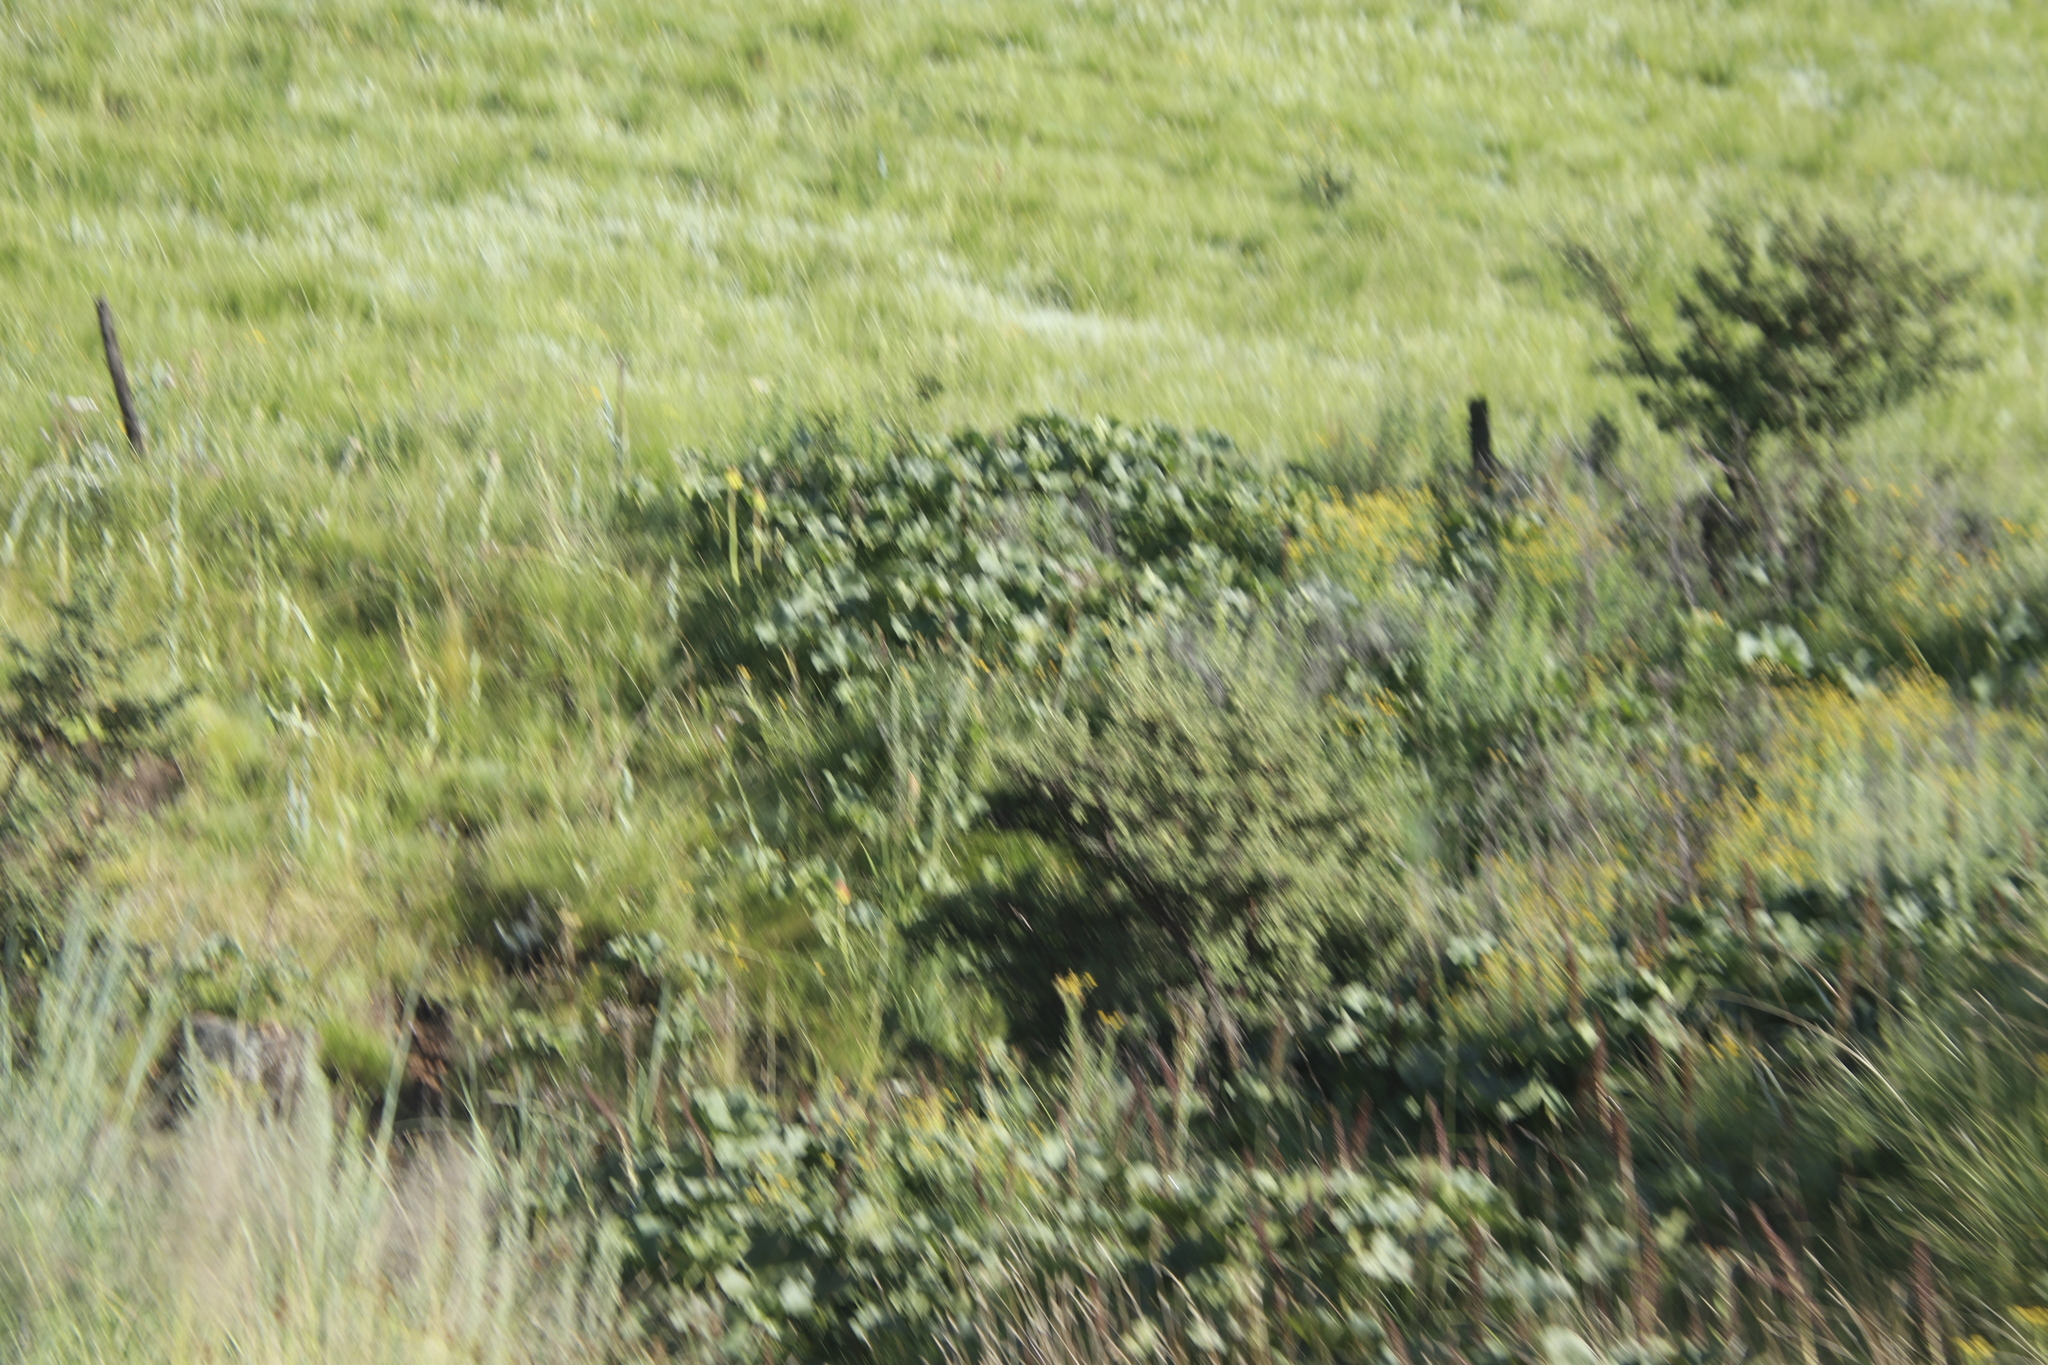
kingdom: Plantae
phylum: Tracheophyta
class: Magnoliopsida
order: Gunnerales
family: Gunneraceae
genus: Gunnera
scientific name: Gunnera perpensa
